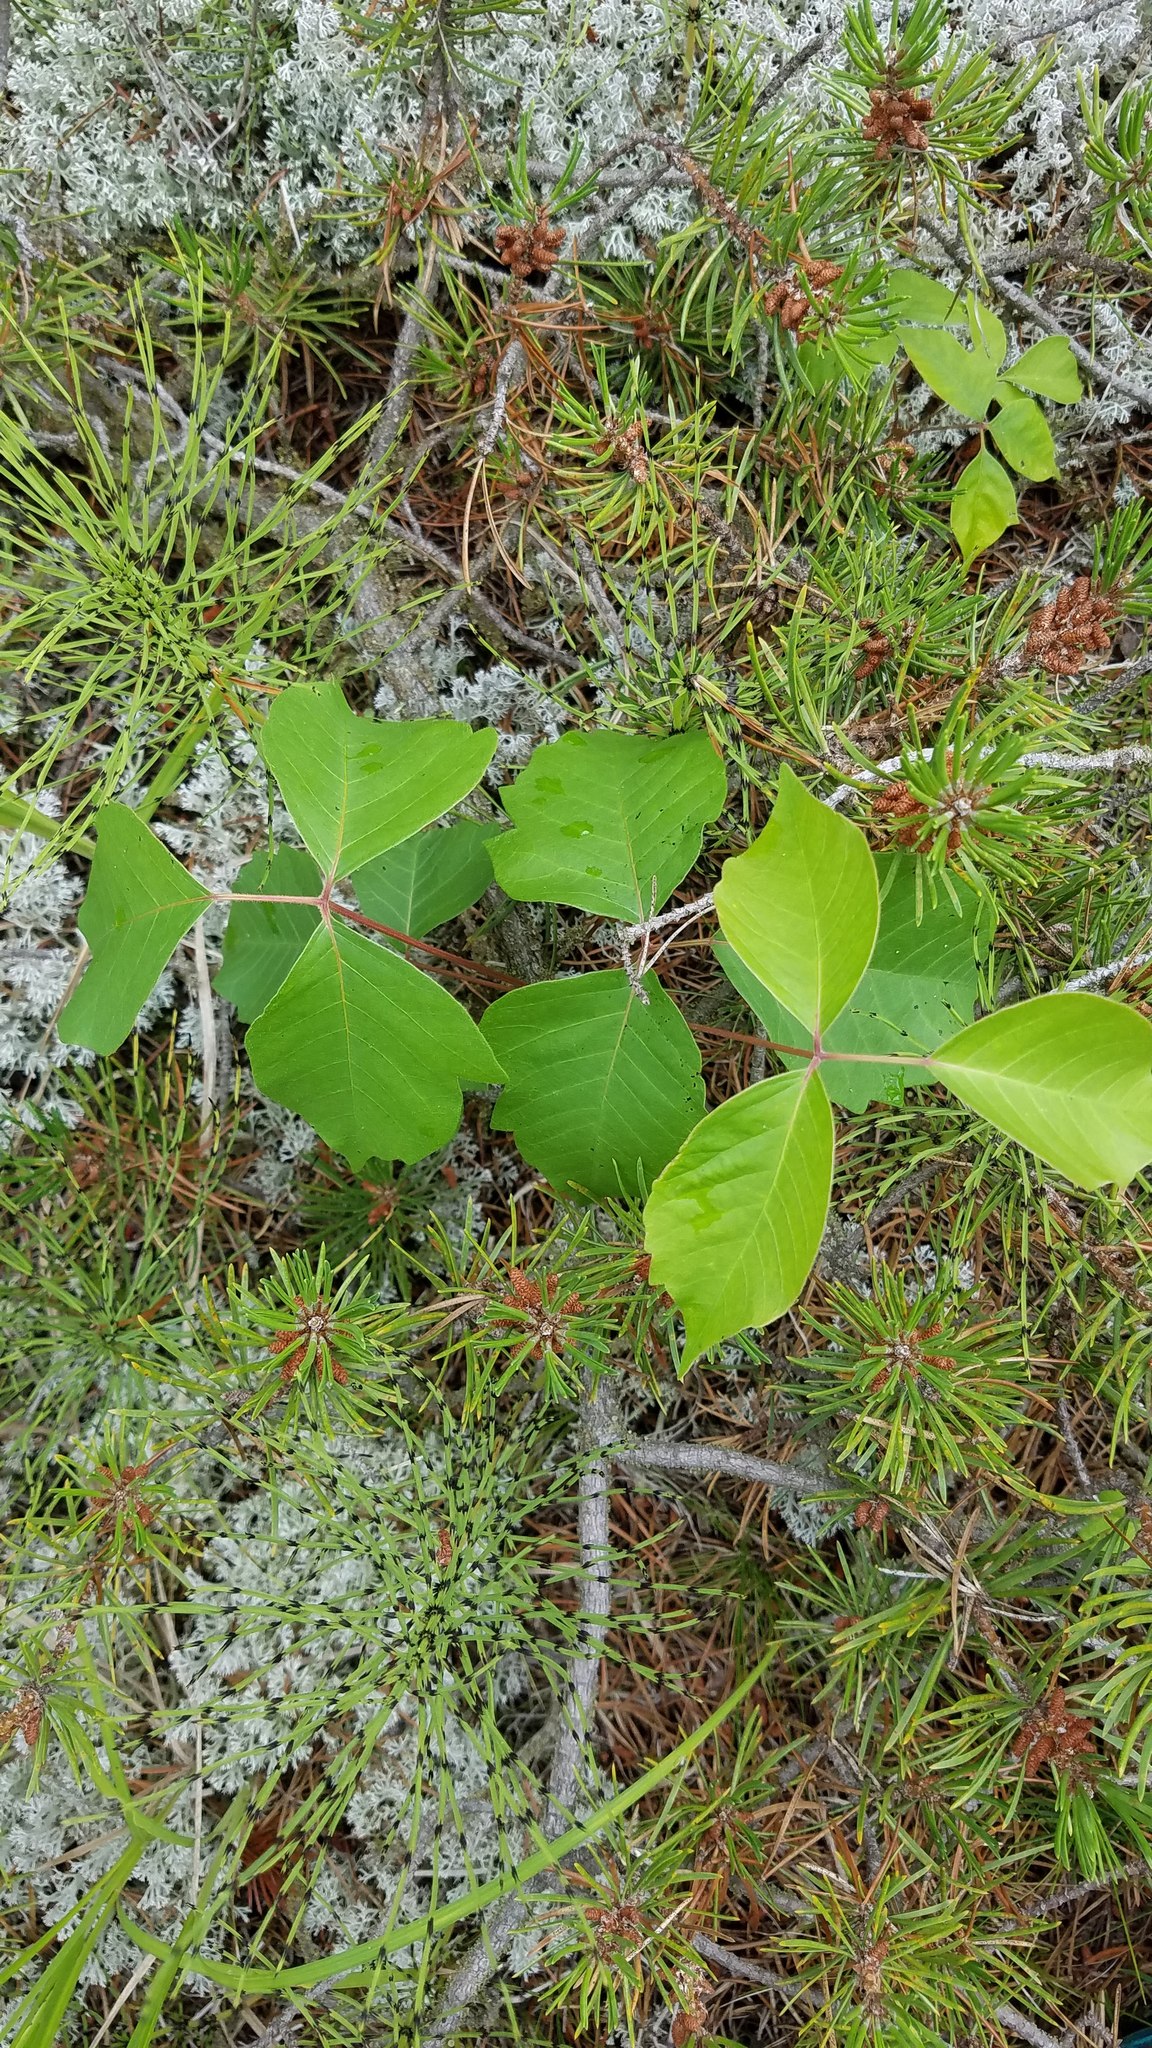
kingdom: Plantae
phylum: Tracheophyta
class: Magnoliopsida
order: Sapindales
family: Anacardiaceae
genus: Toxicodendron
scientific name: Toxicodendron rydbergii
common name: Rydberg's poison-ivy
